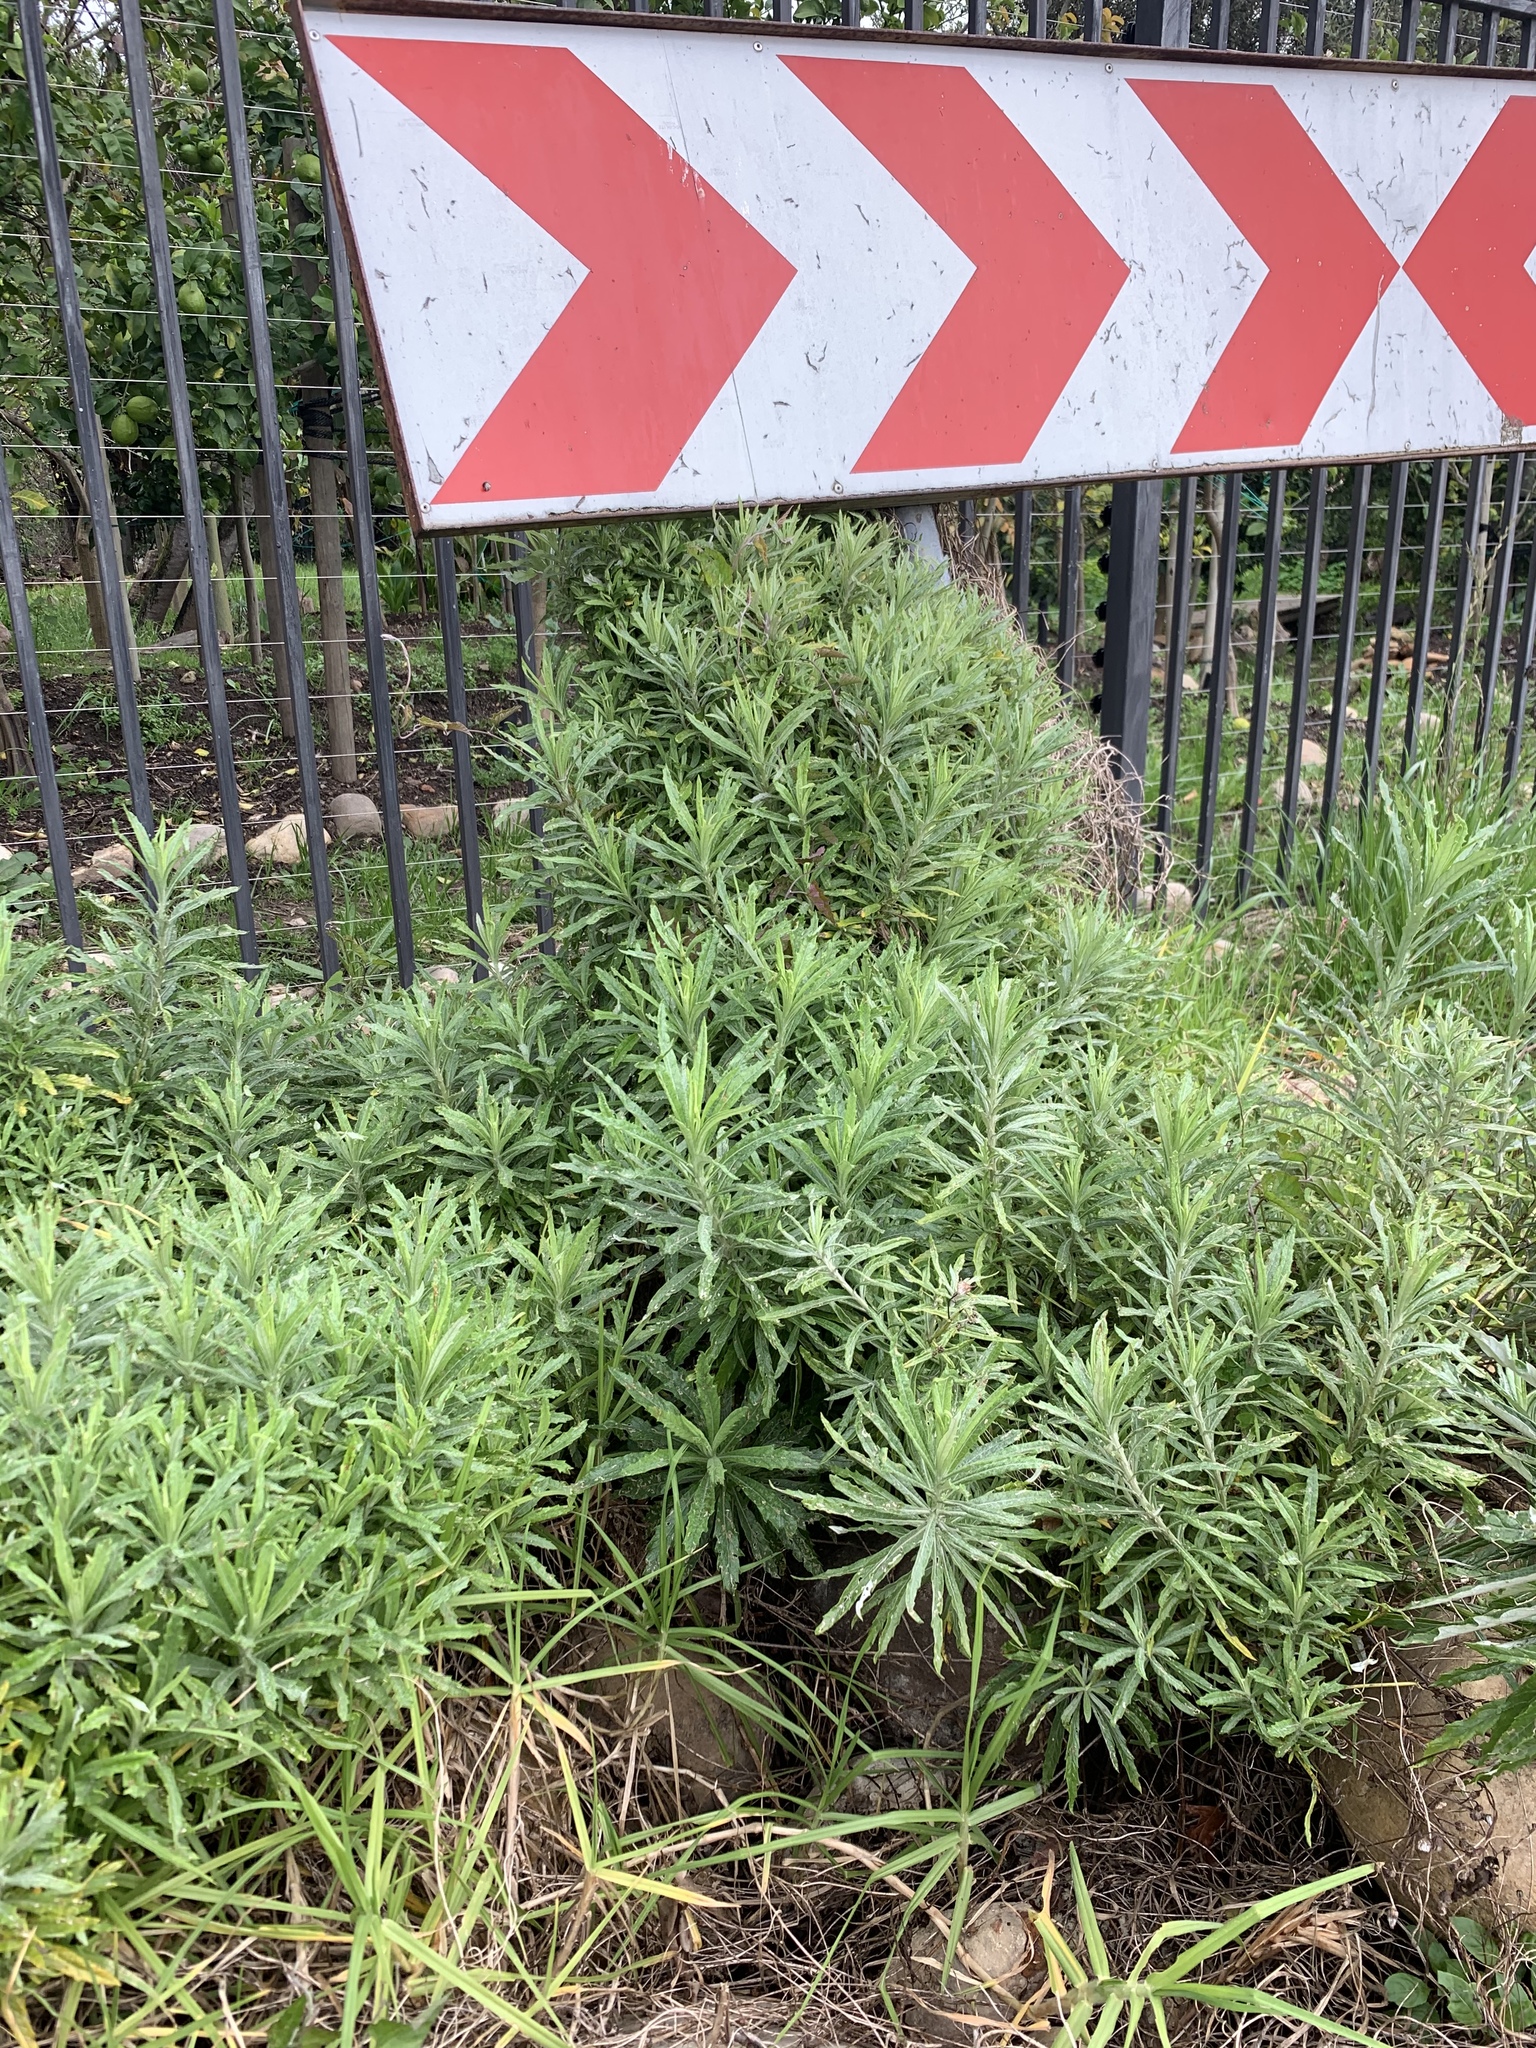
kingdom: Plantae
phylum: Tracheophyta
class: Magnoliopsida
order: Asterales
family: Asteraceae
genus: Senecio
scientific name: Senecio pterophorus
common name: Shoddy ragwort
